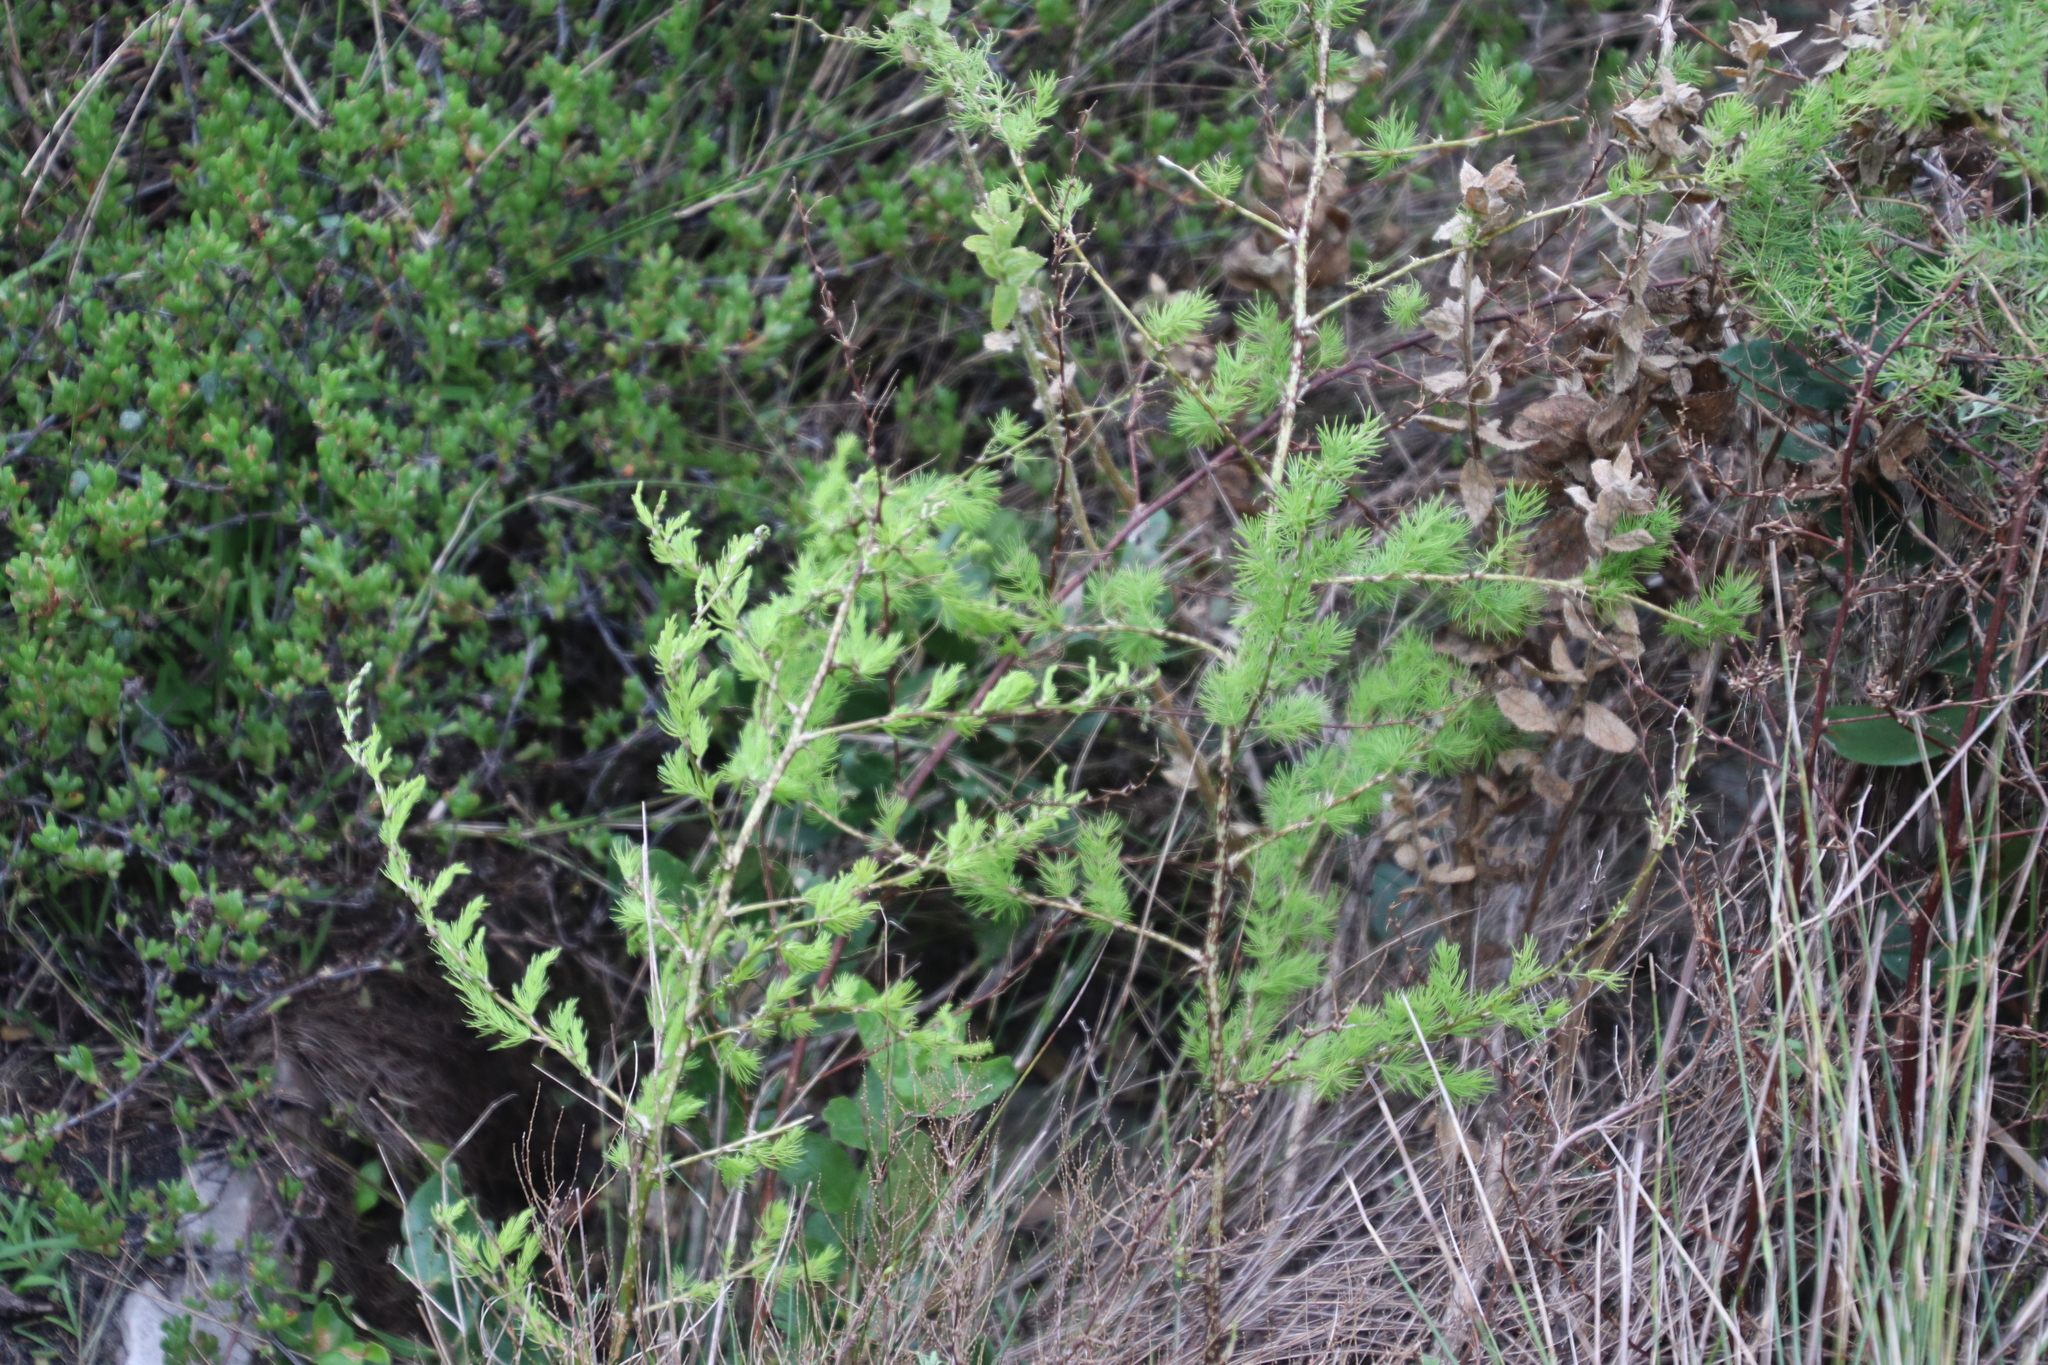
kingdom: Plantae
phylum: Tracheophyta
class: Liliopsida
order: Asparagales
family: Asparagaceae
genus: Asparagus
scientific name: Asparagus rubicundus
